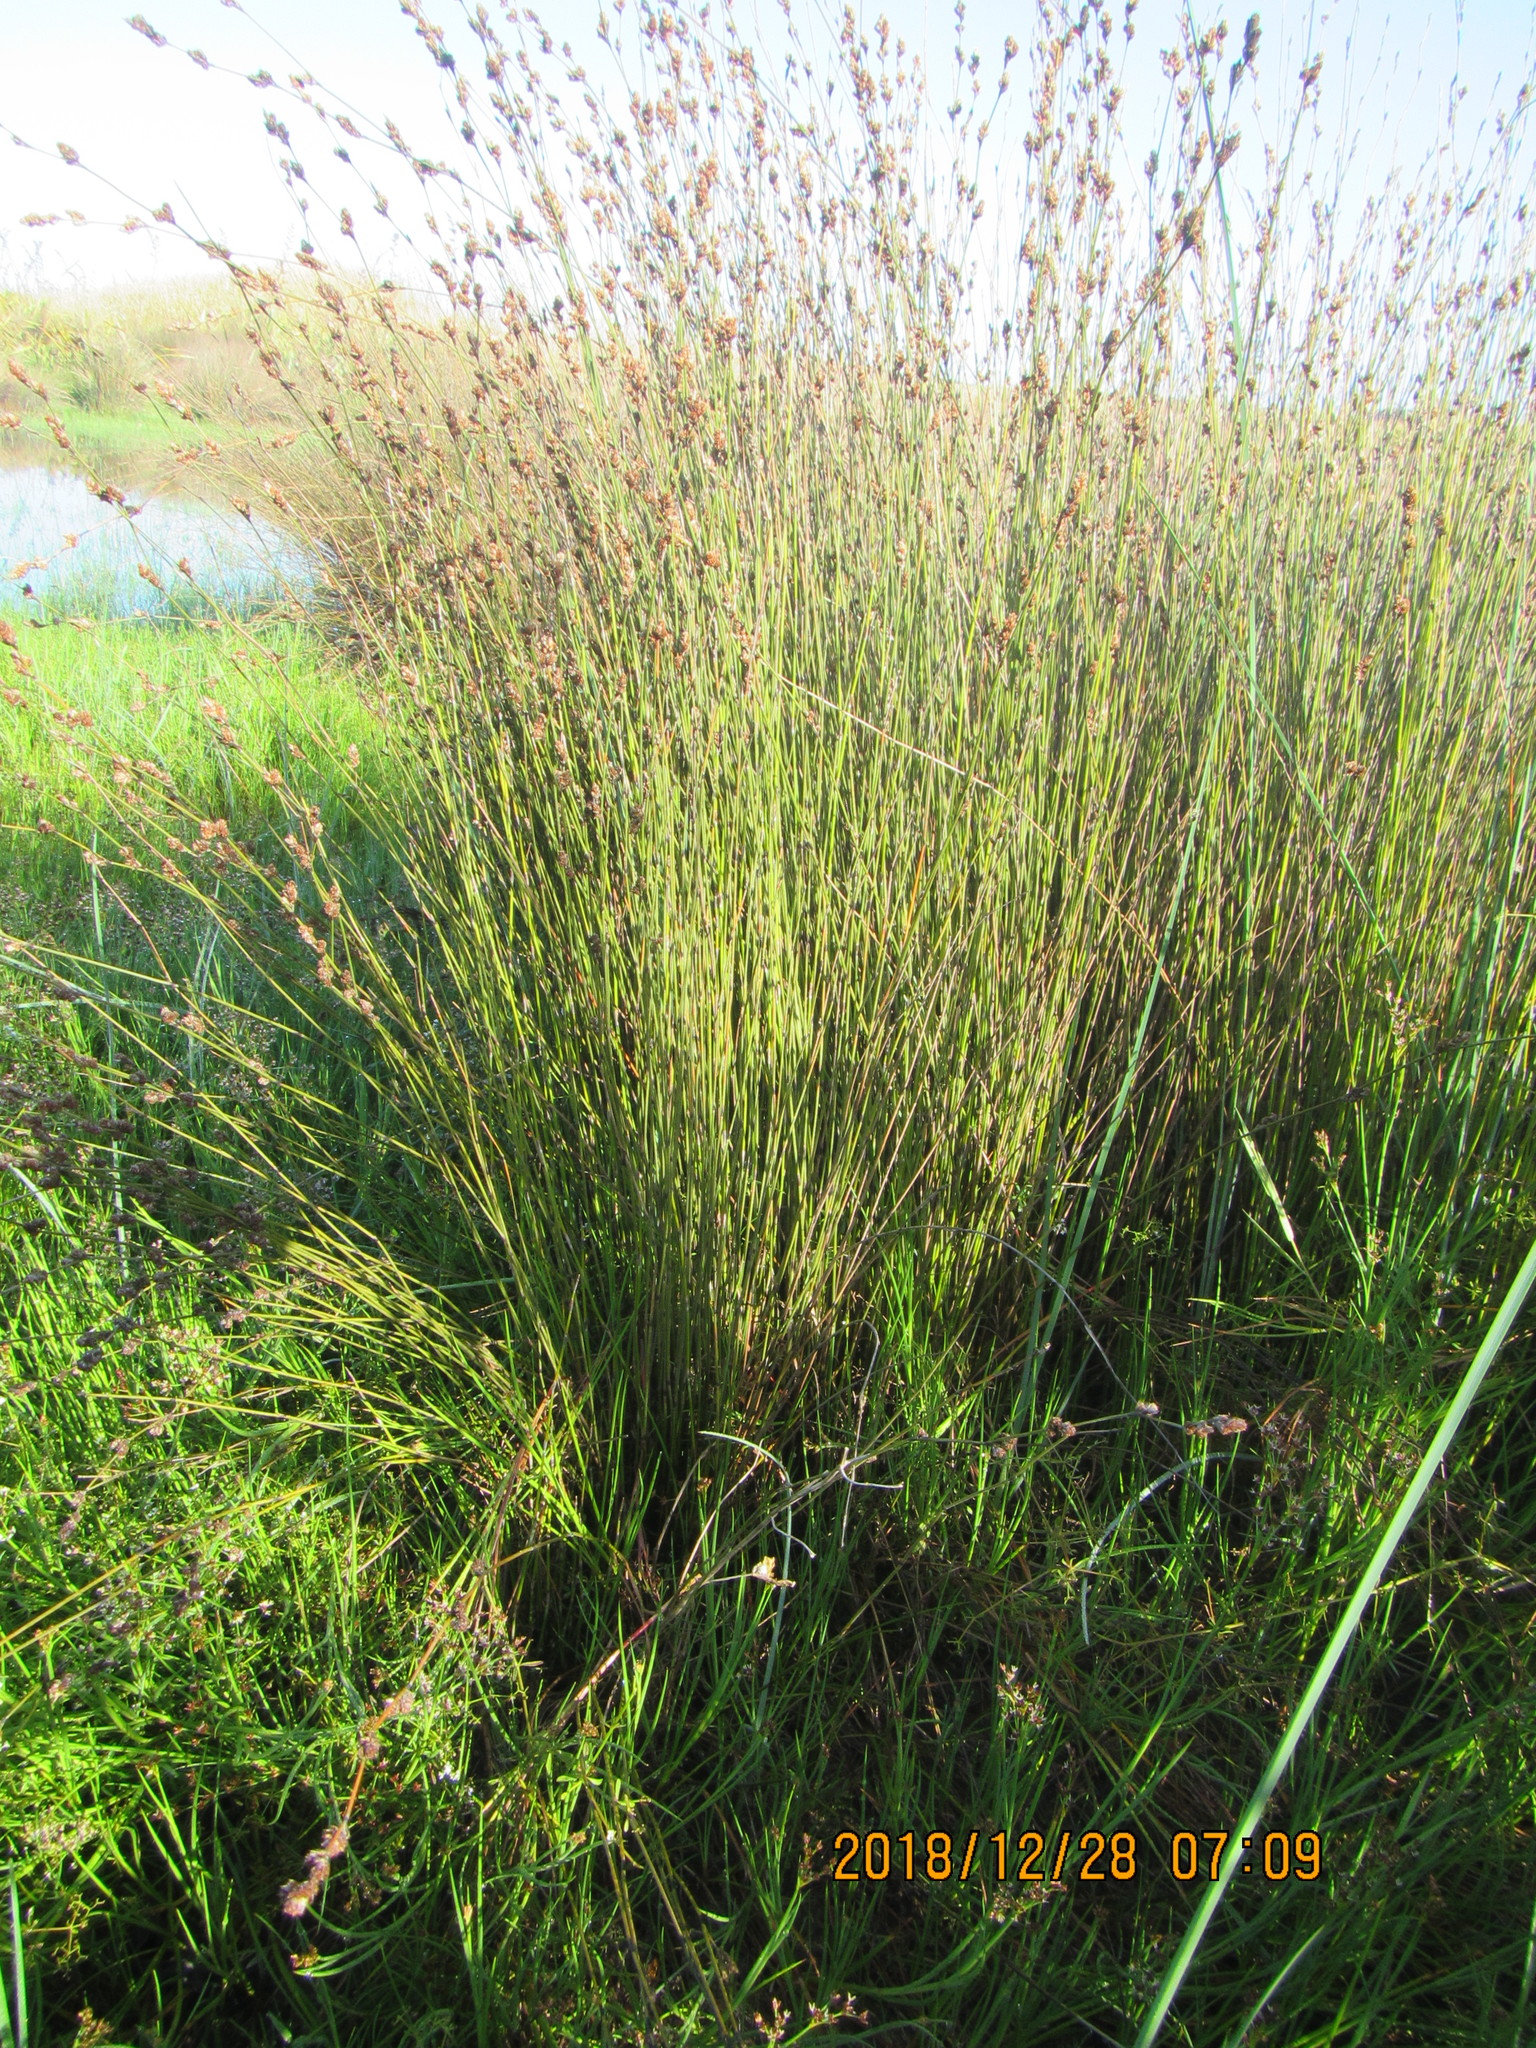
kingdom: Plantae
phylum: Tracheophyta
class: Liliopsida
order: Poales
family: Restionaceae
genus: Apodasmia
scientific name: Apodasmia similis
